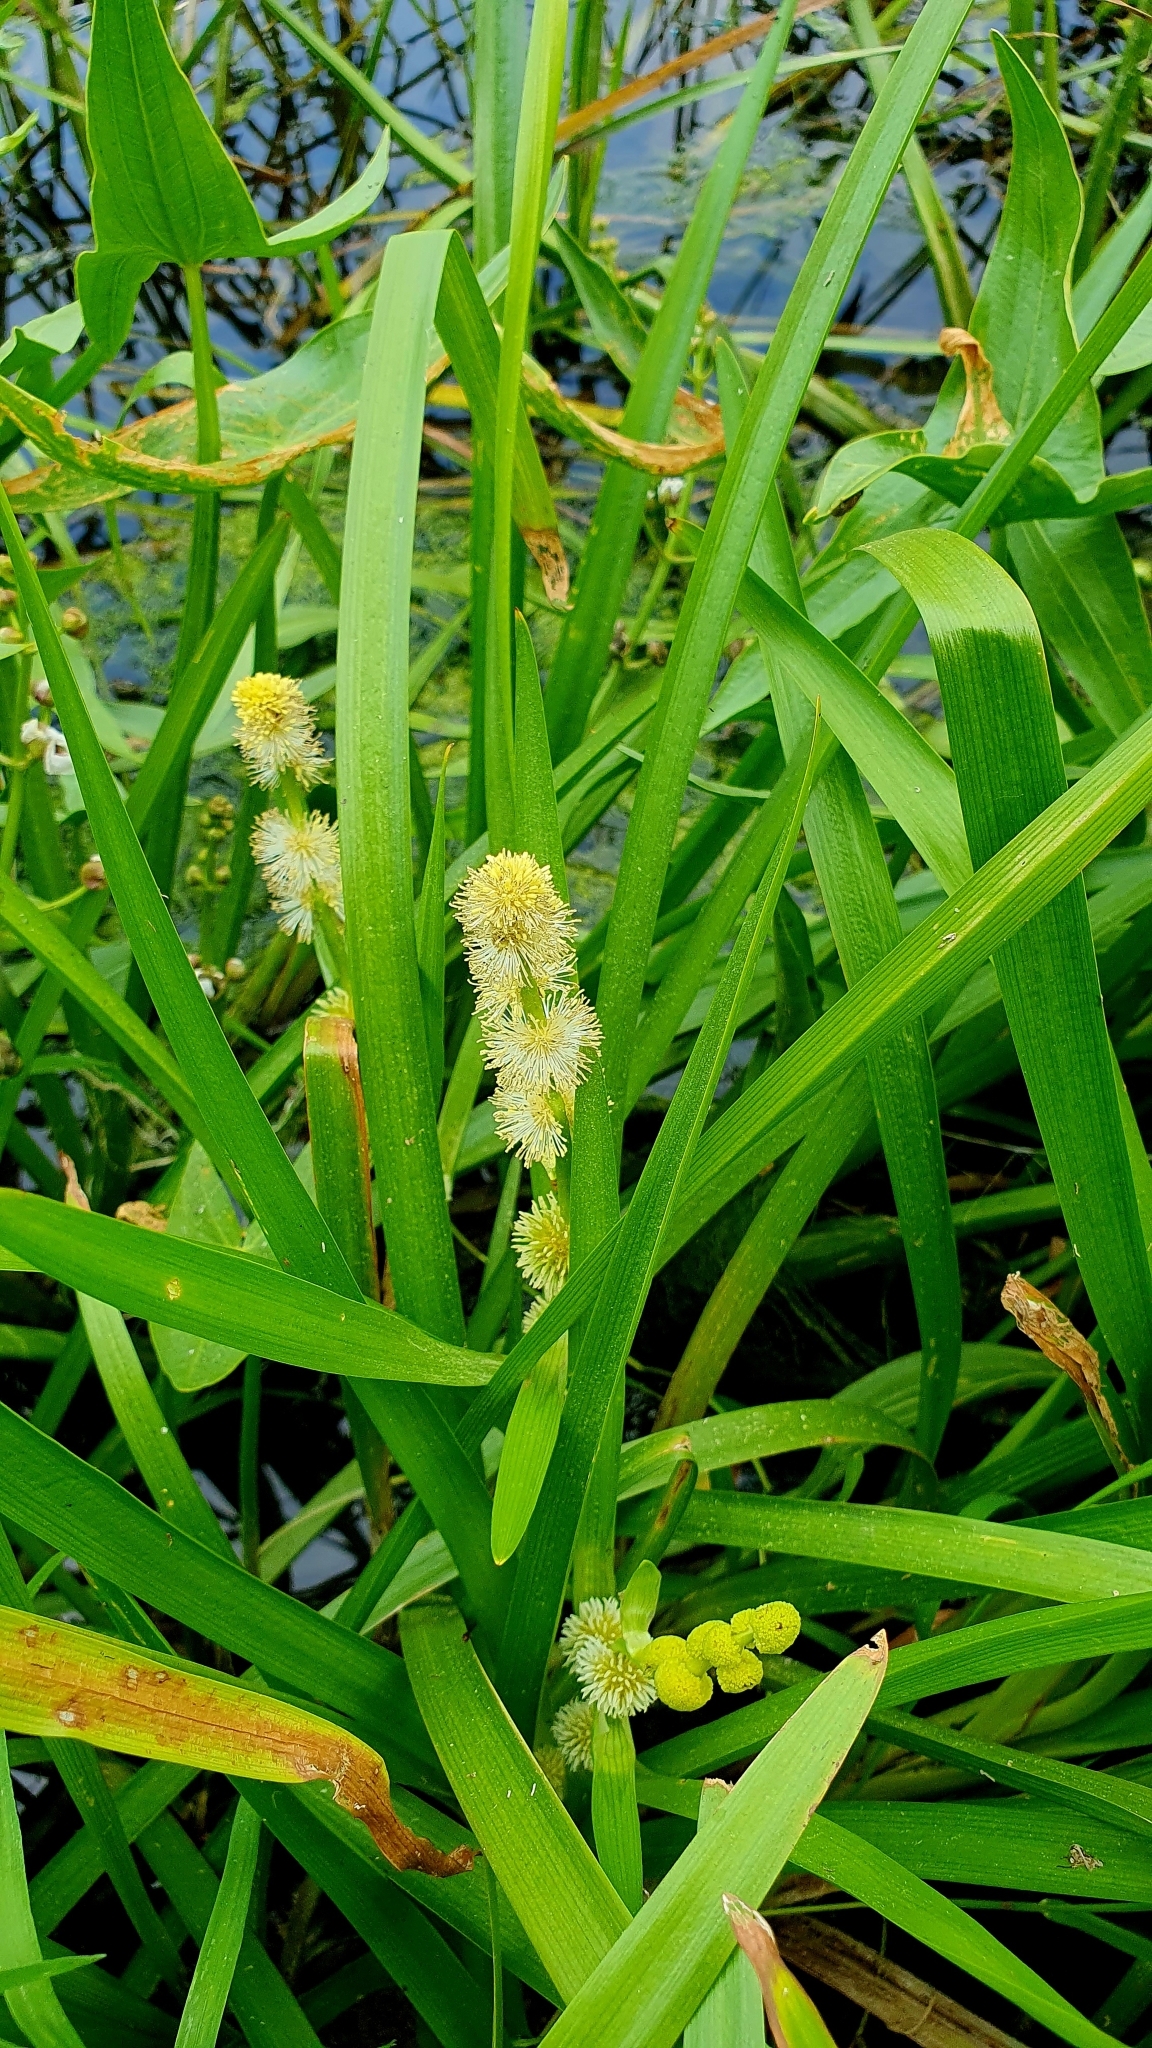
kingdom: Plantae
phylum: Tracheophyta
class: Liliopsida
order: Poales
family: Typhaceae
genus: Sparganium
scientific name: Sparganium emersum
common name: Unbranched bur-reed
